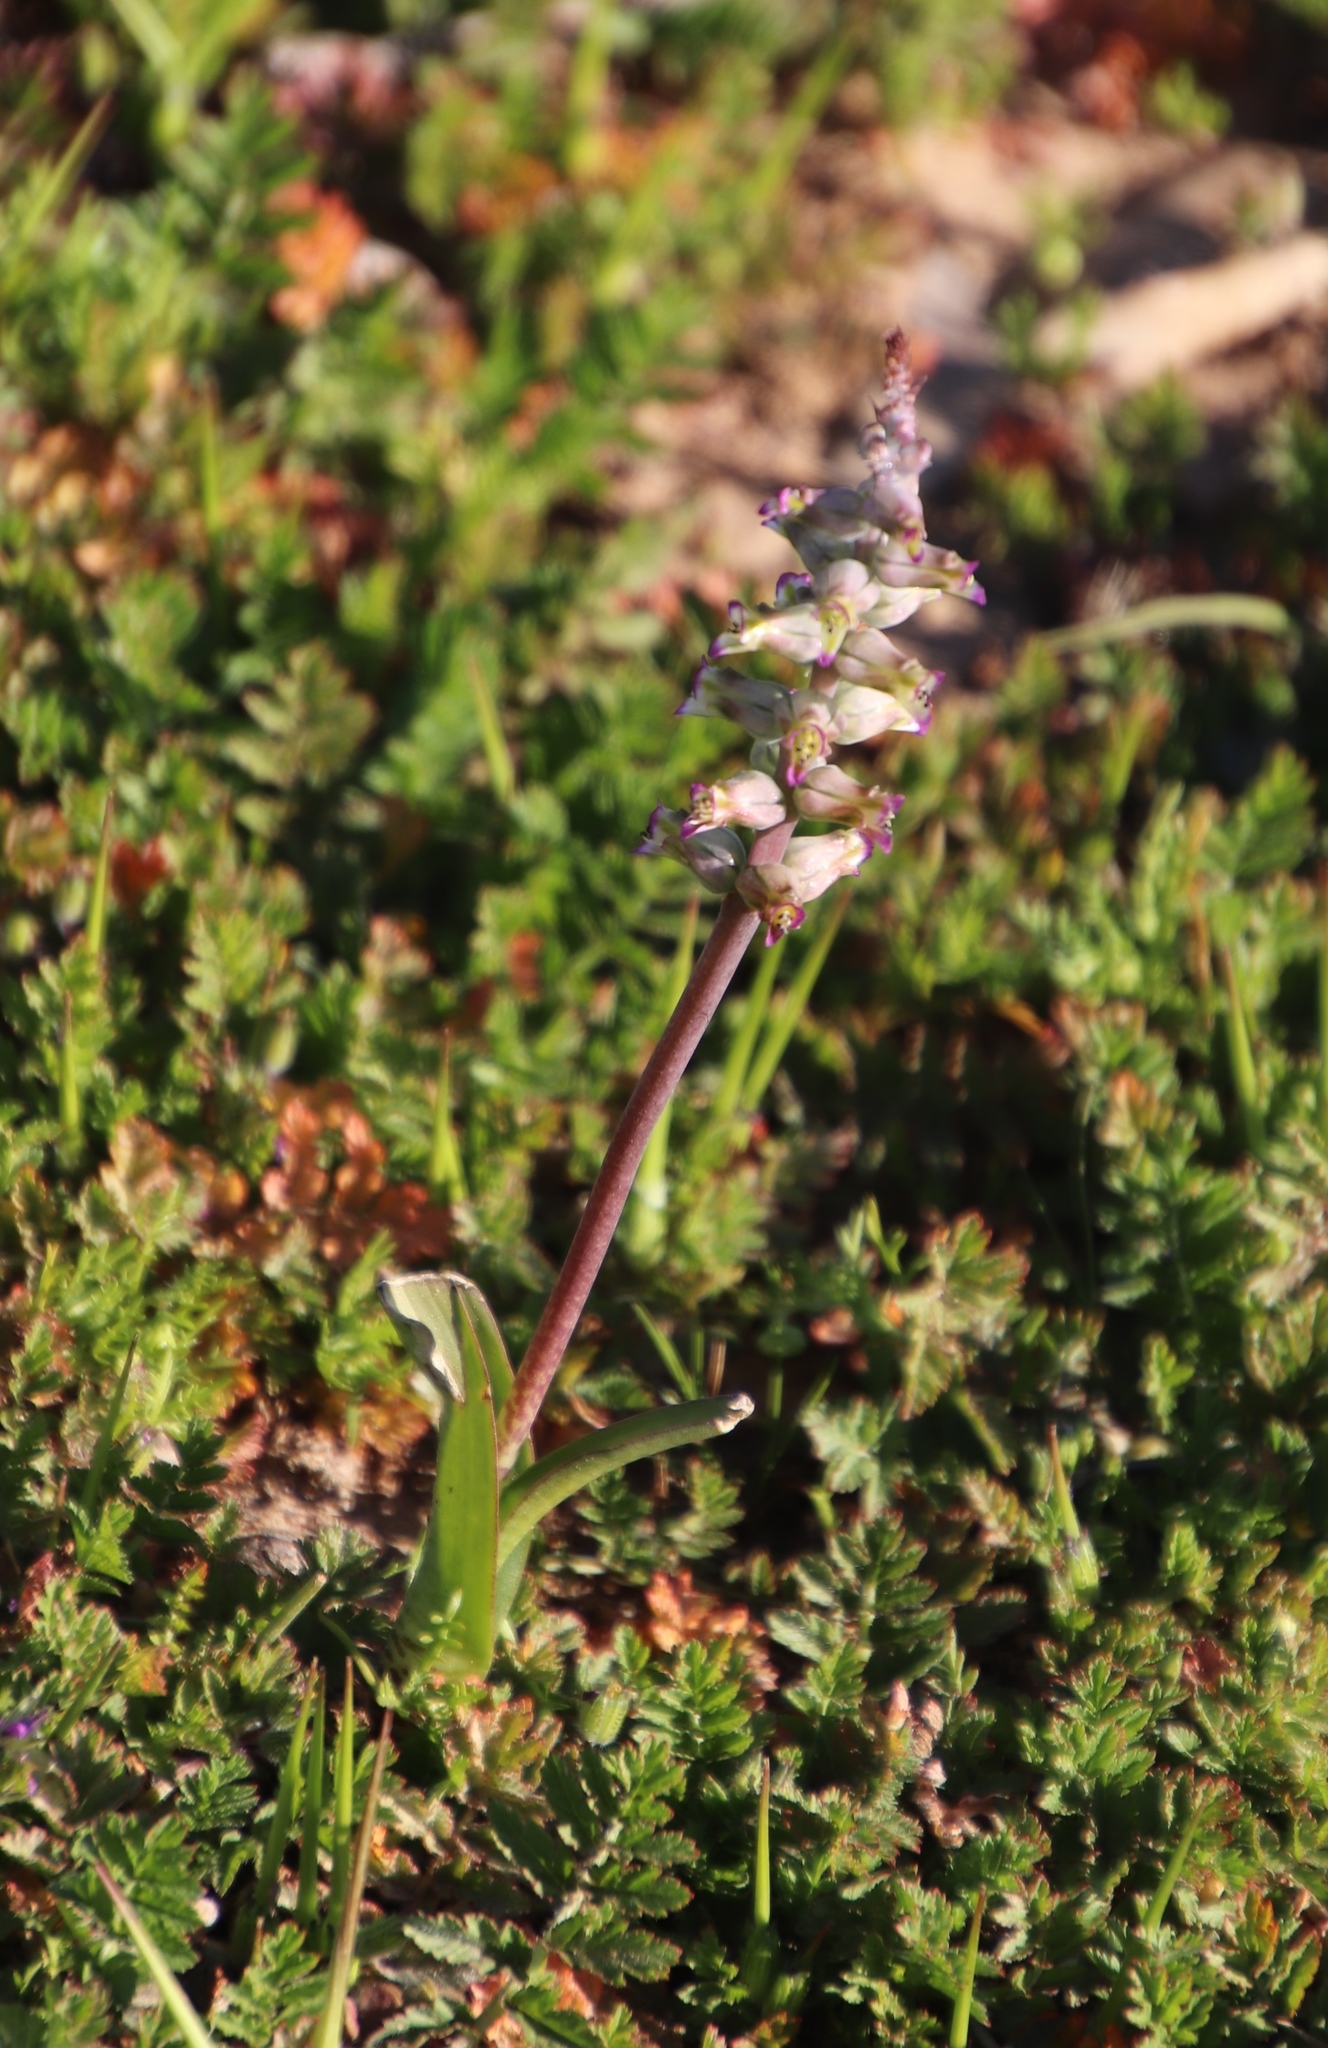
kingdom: Plantae
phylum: Tracheophyta
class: Liliopsida
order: Asparagales
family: Asparagaceae
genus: Lachenalia
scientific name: Lachenalia obscura
